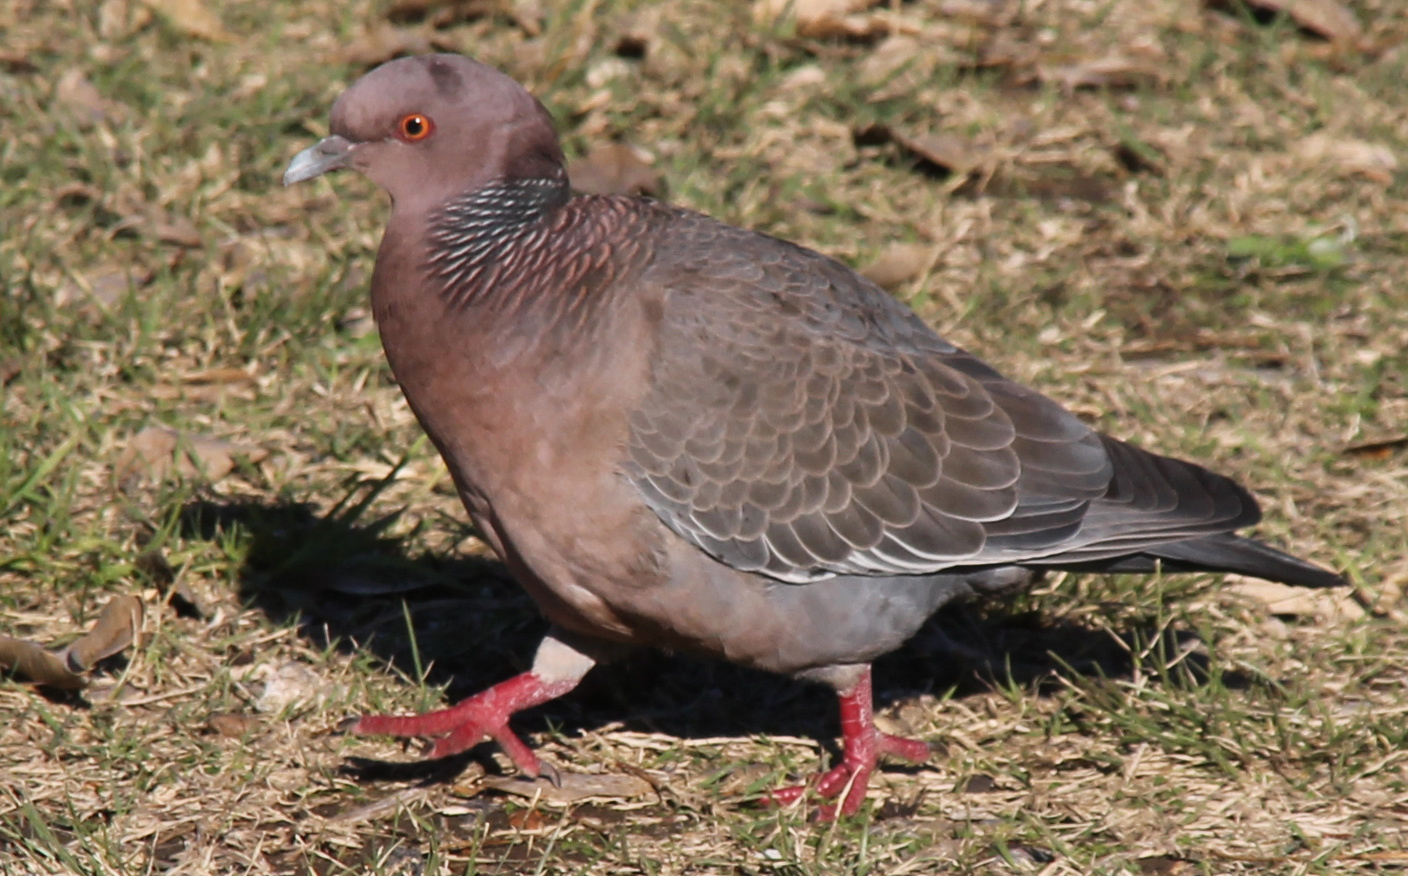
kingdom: Animalia
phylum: Chordata
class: Aves
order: Columbiformes
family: Columbidae
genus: Patagioenas
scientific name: Patagioenas picazuro
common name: Picazuro pigeon
